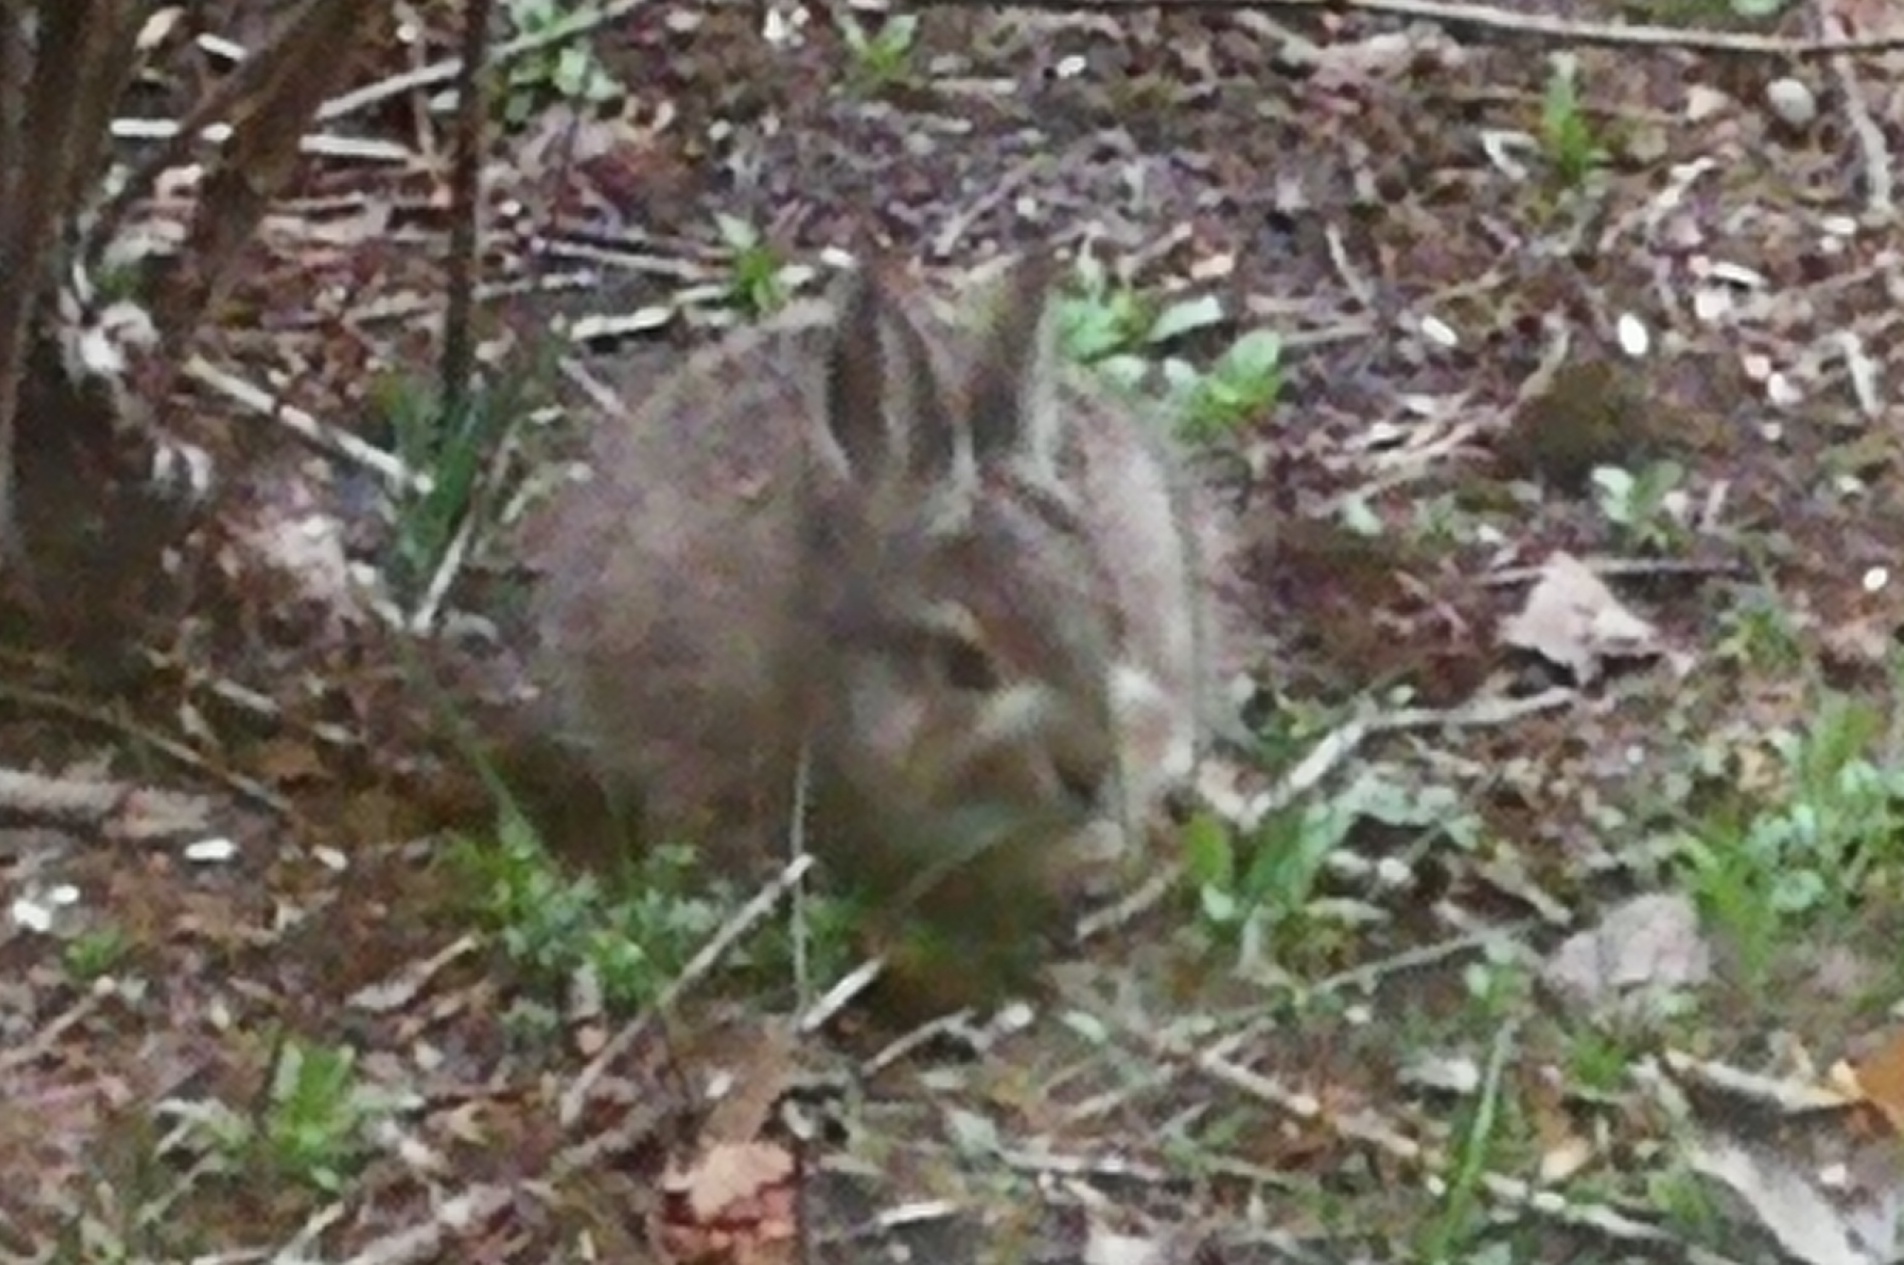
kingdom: Animalia
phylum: Chordata
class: Mammalia
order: Lagomorpha
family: Leporidae
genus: Oryctolagus
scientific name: Oryctolagus cuniculus
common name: European rabbit
